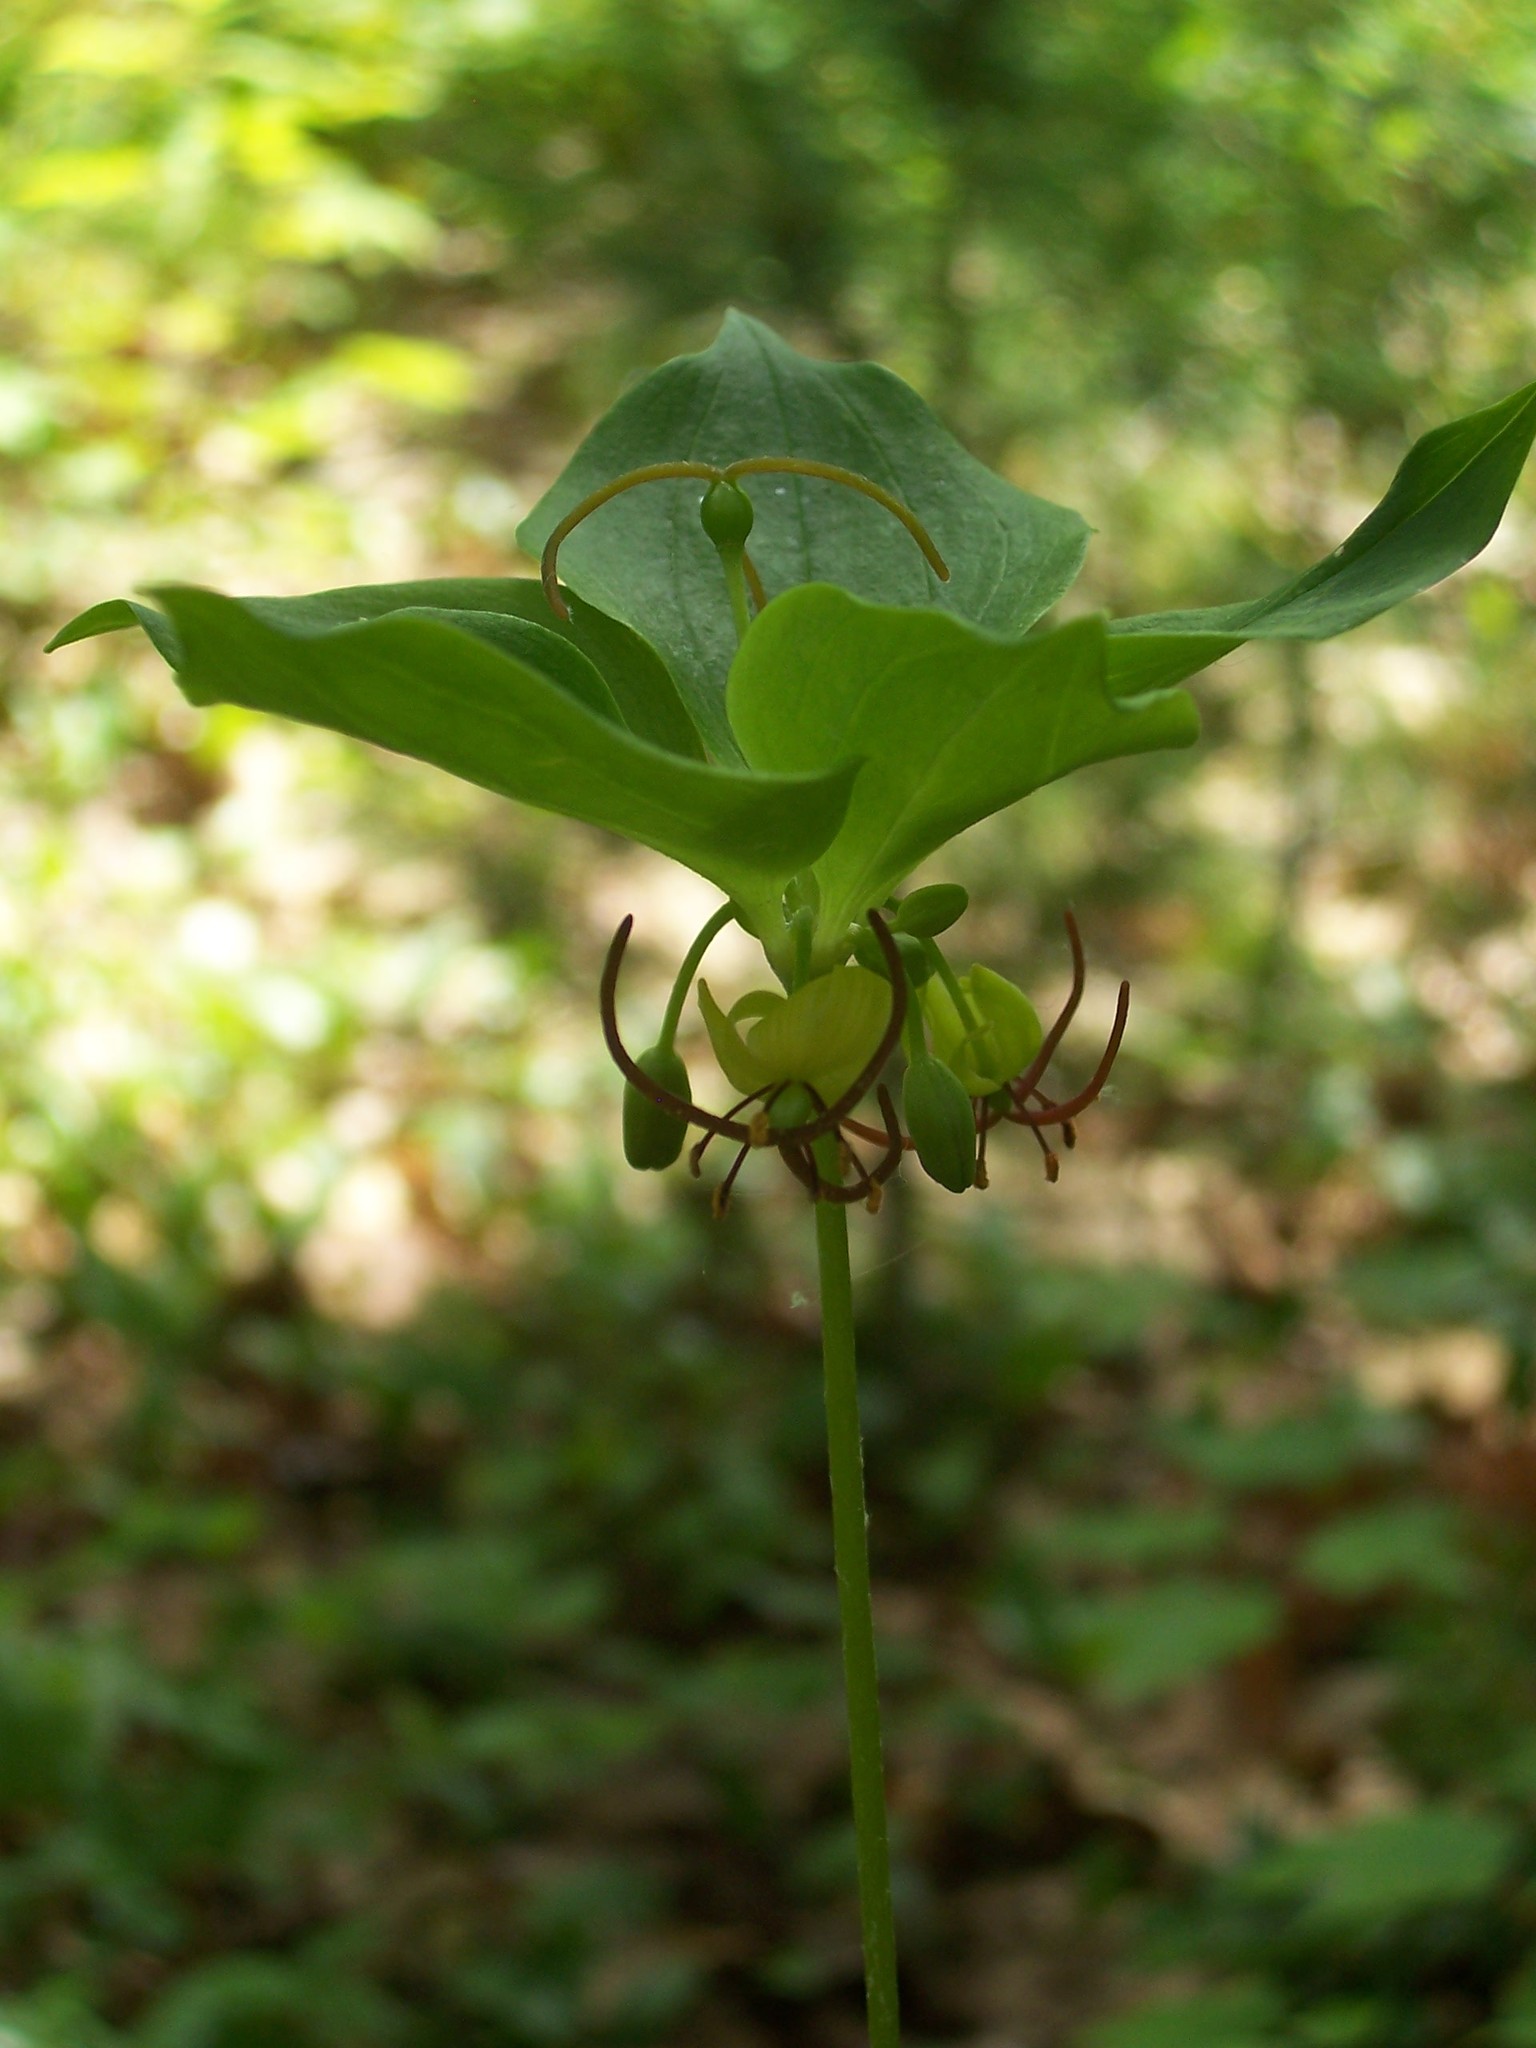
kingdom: Plantae
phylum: Tracheophyta
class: Liliopsida
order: Liliales
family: Liliaceae
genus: Medeola
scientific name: Medeola virginiana
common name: Indian cucumber-root
